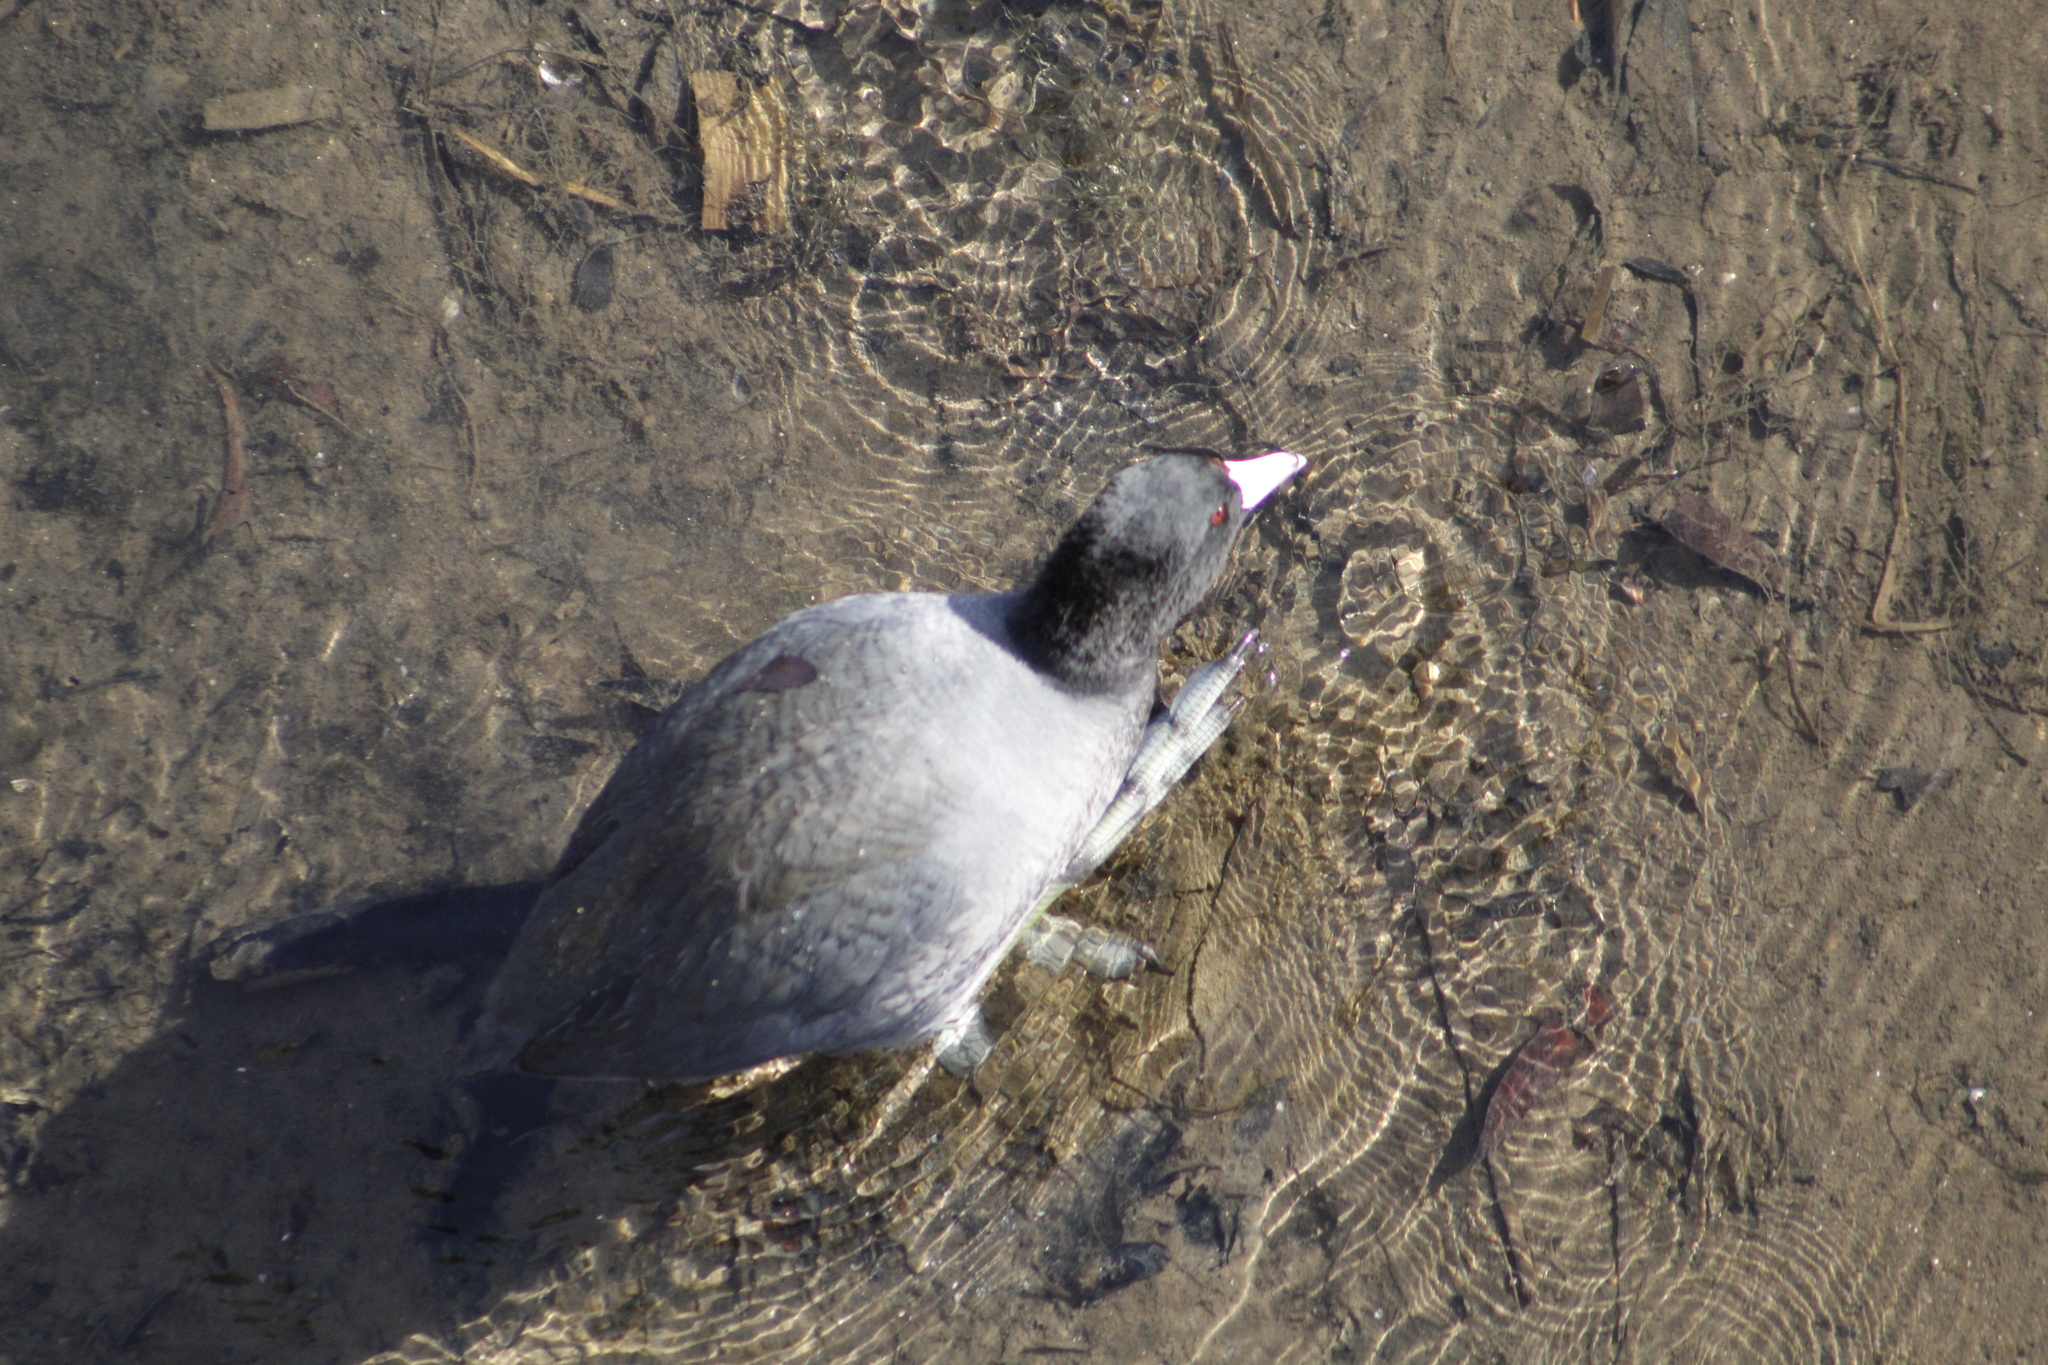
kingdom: Animalia
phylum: Chordata
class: Aves
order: Gruiformes
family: Rallidae
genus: Fulica
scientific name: Fulica americana
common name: American coot
